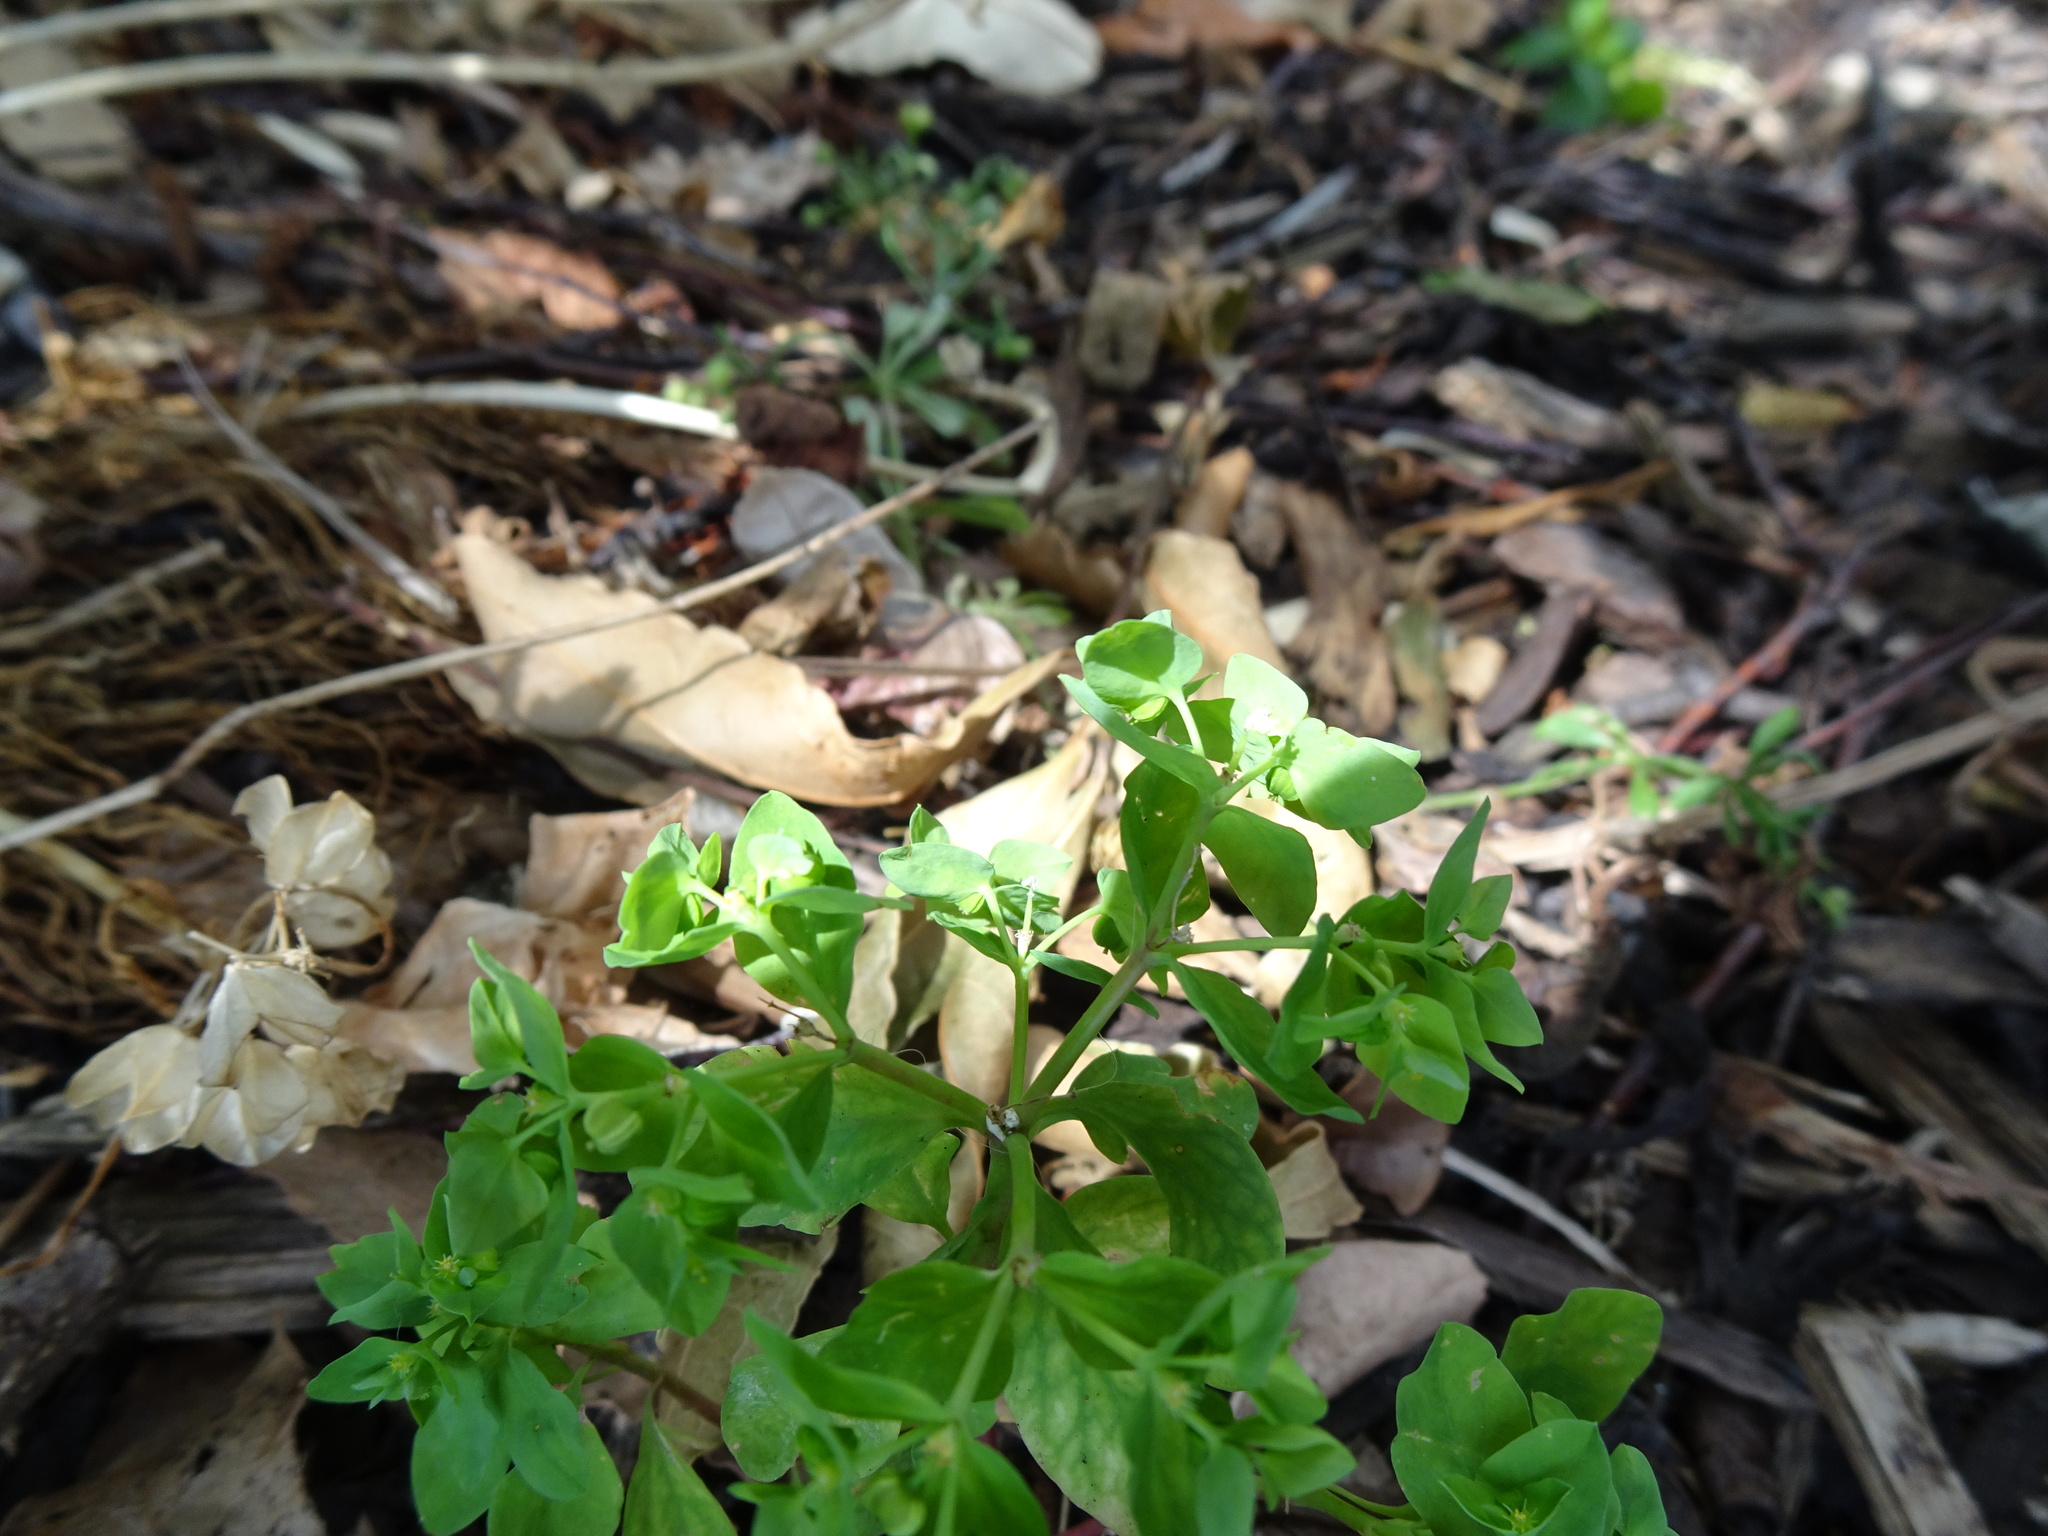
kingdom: Plantae
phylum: Tracheophyta
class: Magnoliopsida
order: Malpighiales
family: Euphorbiaceae
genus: Euphorbia
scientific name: Euphorbia peplus
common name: Petty spurge
